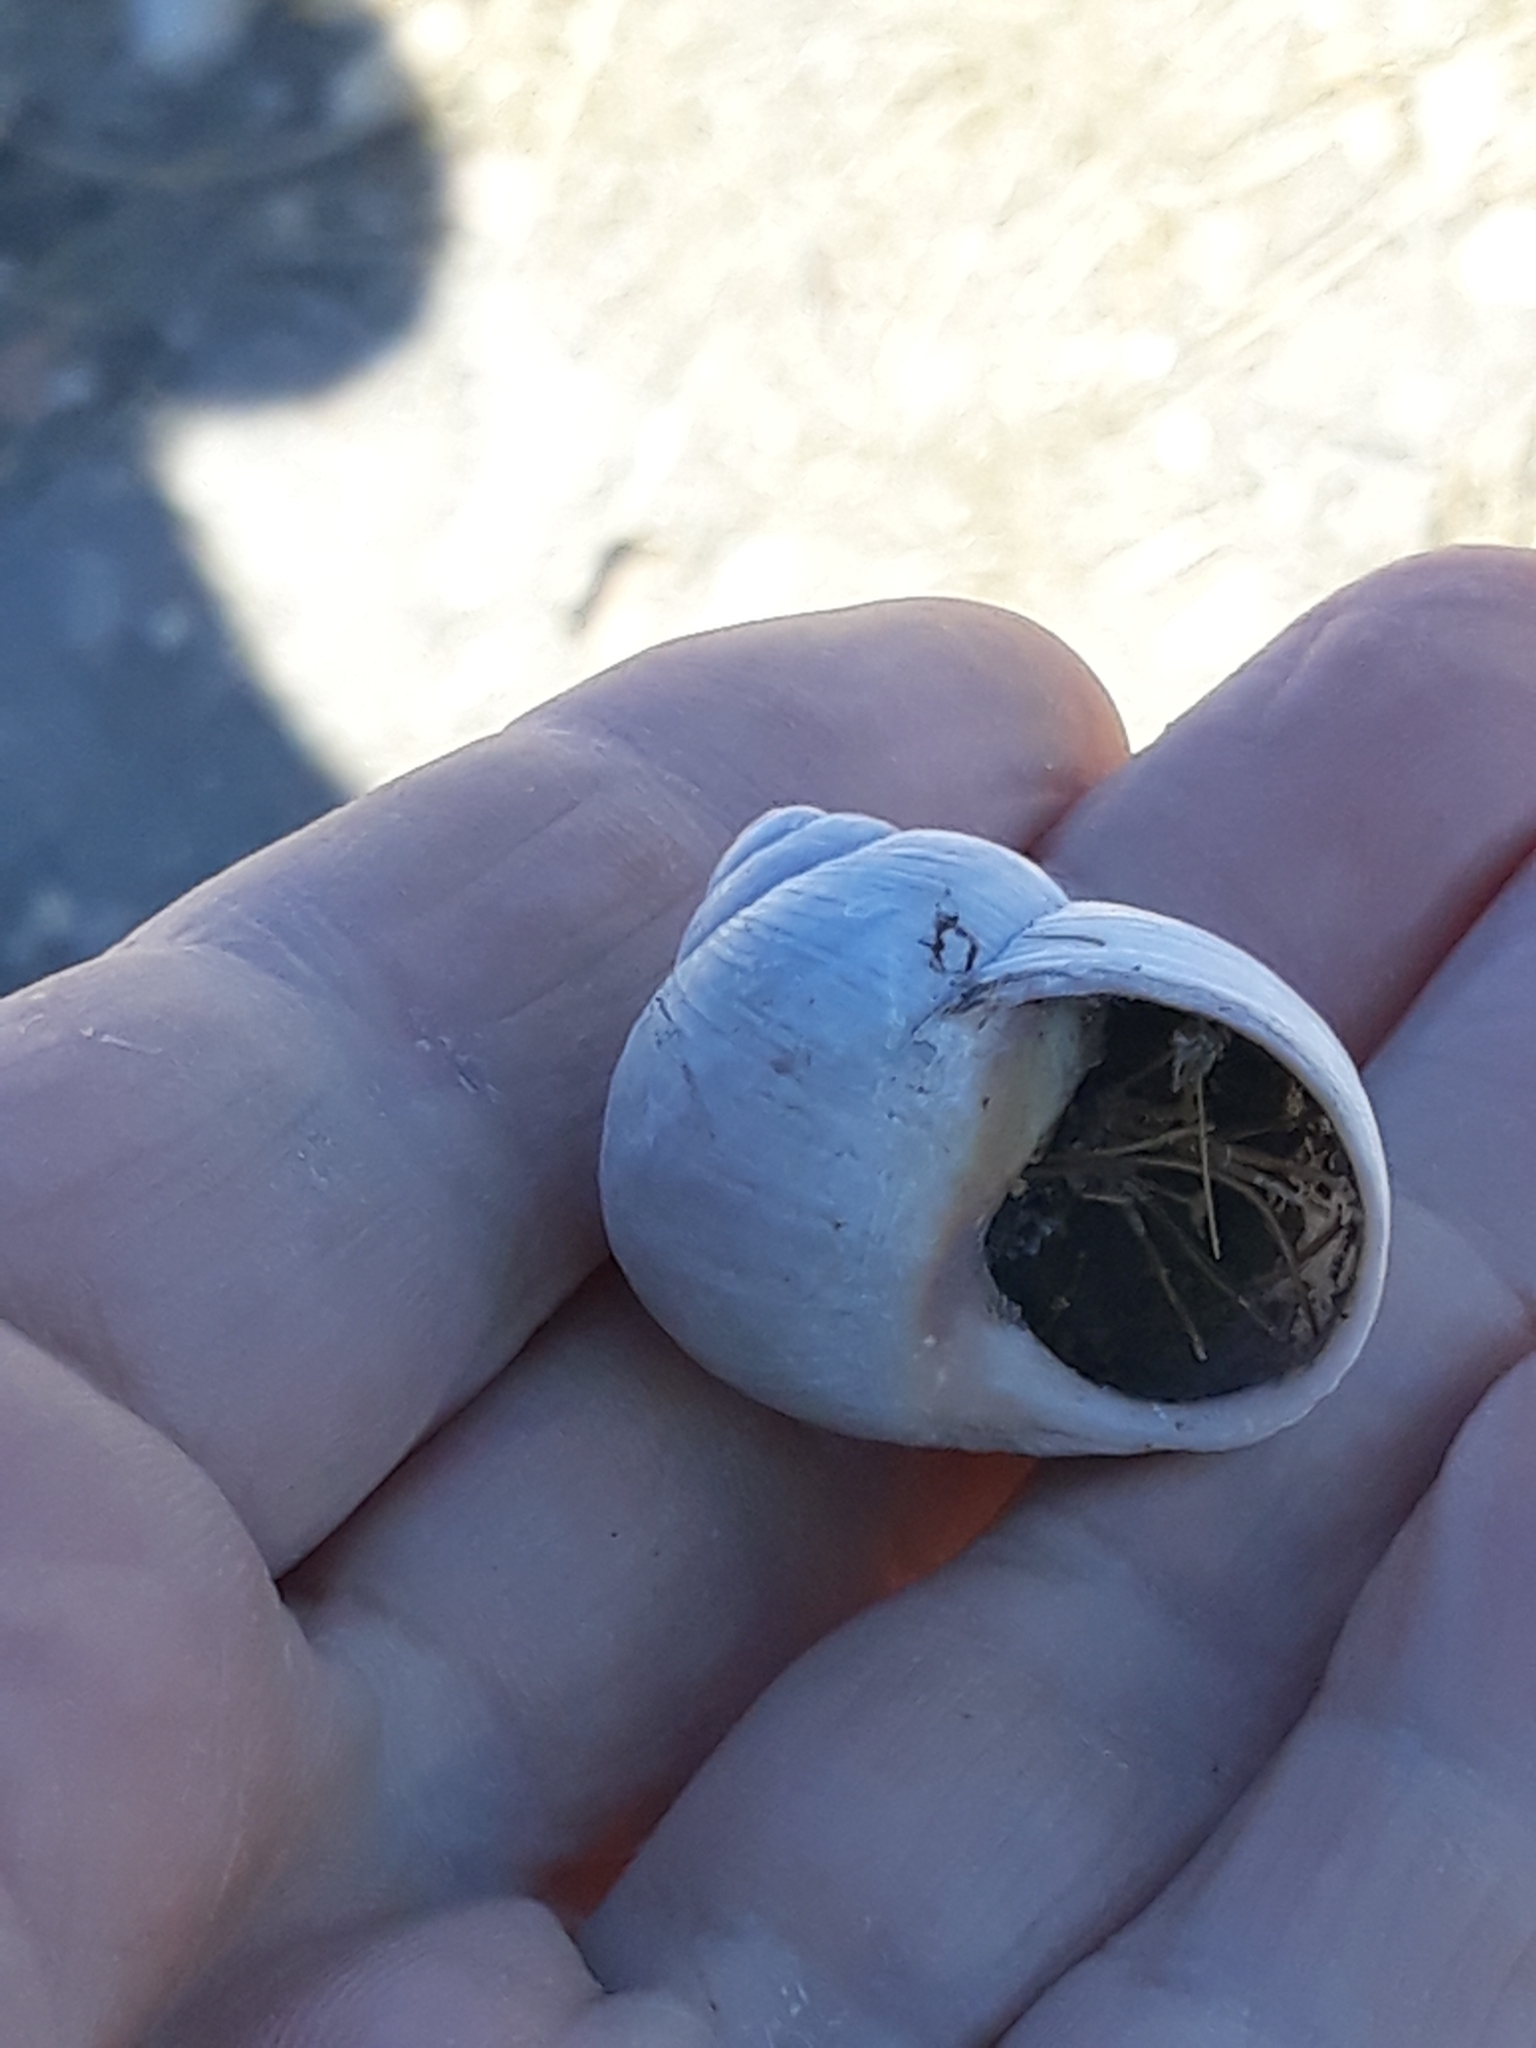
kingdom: Animalia
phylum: Mollusca
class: Gastropoda
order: Stylommatophora
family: Helicidae
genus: Helix
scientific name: Helix melanostoma
